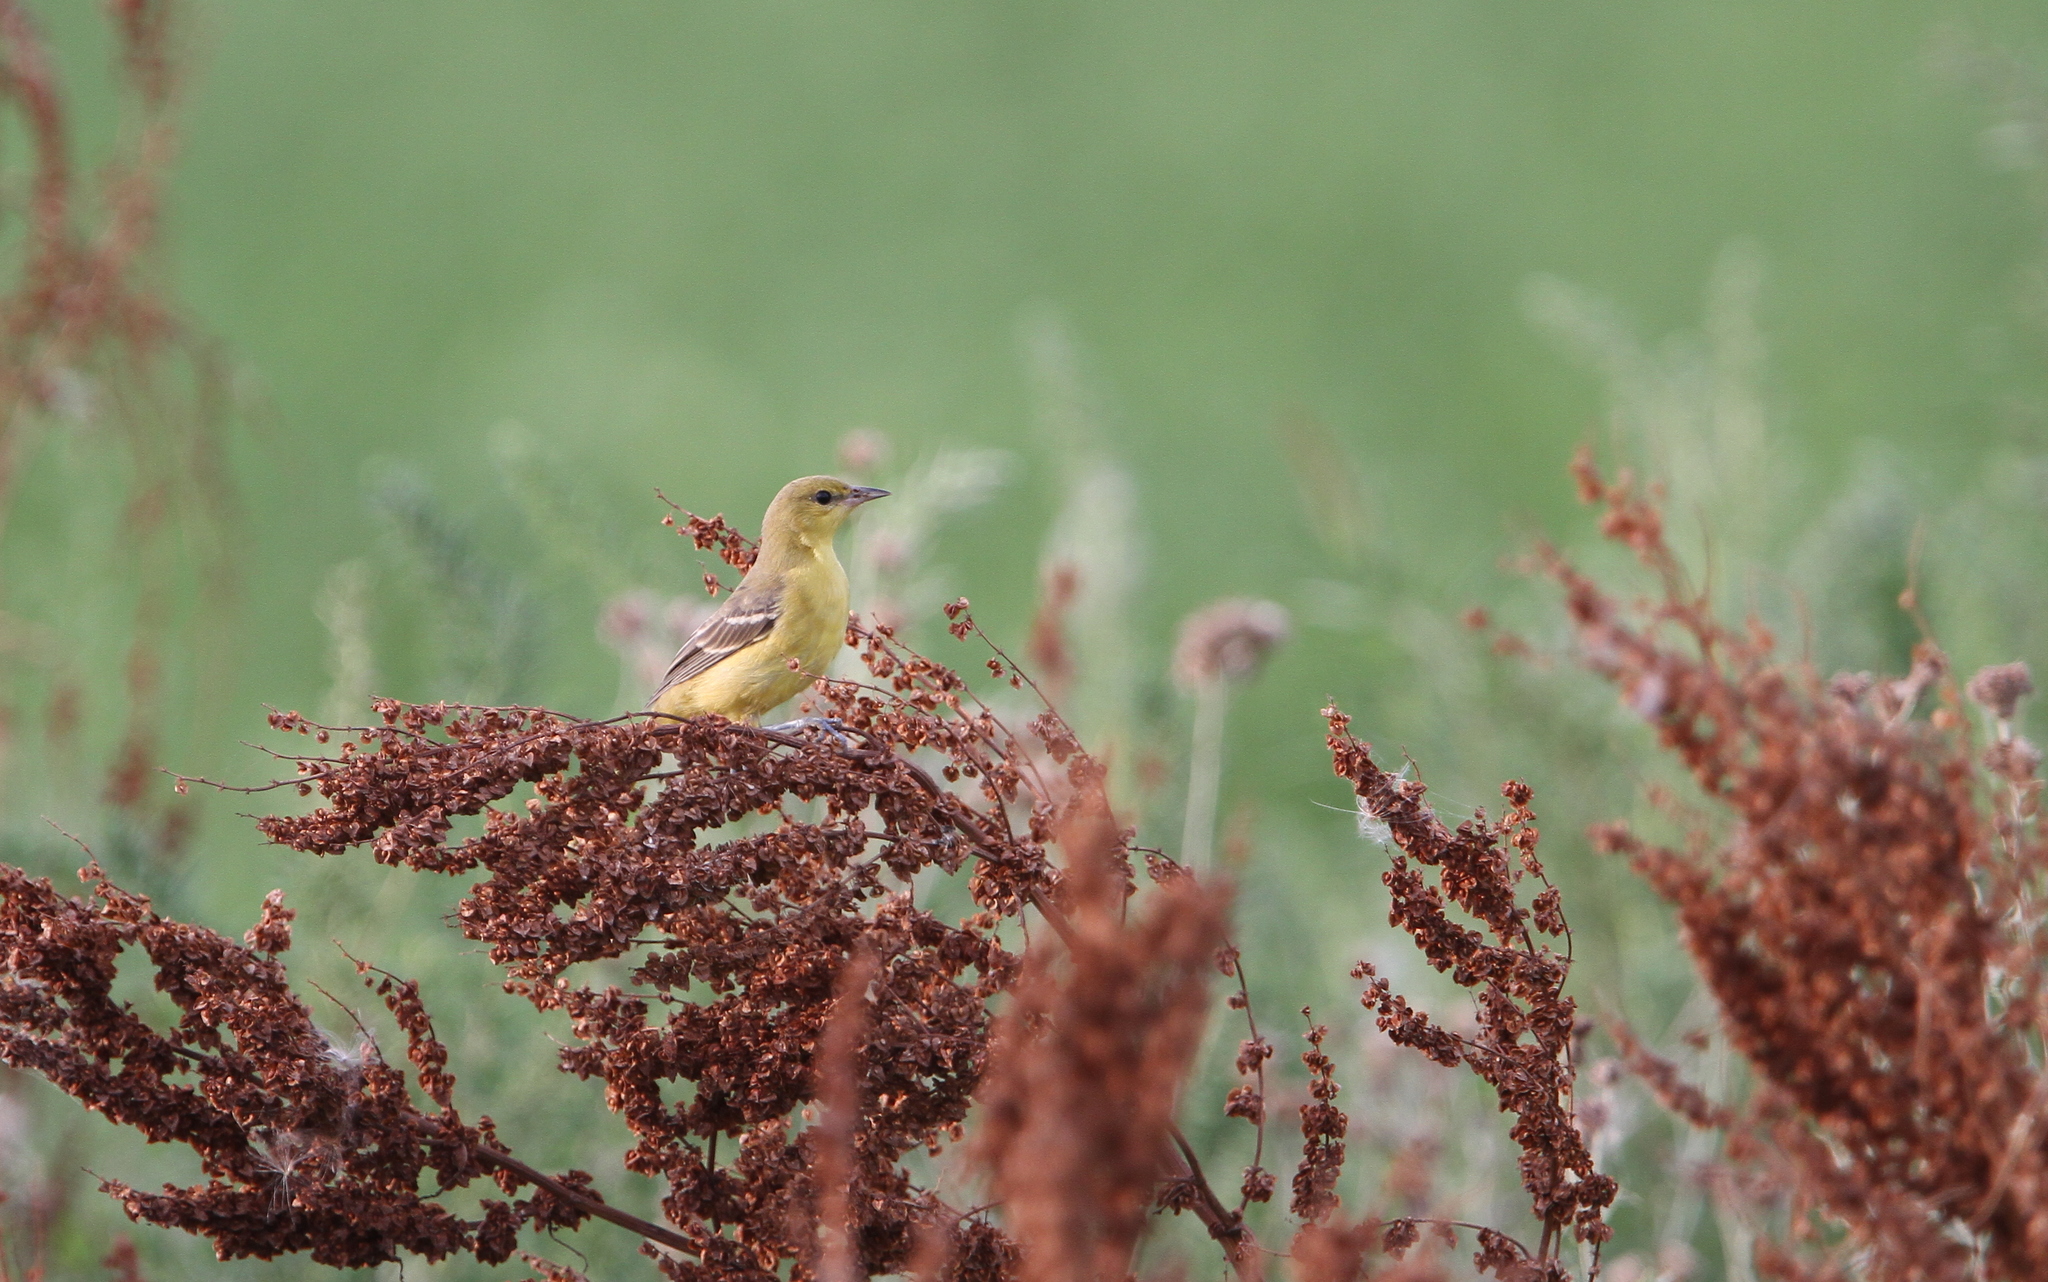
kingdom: Animalia
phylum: Chordata
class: Aves
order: Passeriformes
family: Icteridae
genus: Icterus
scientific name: Icterus spurius
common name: Orchard oriole
